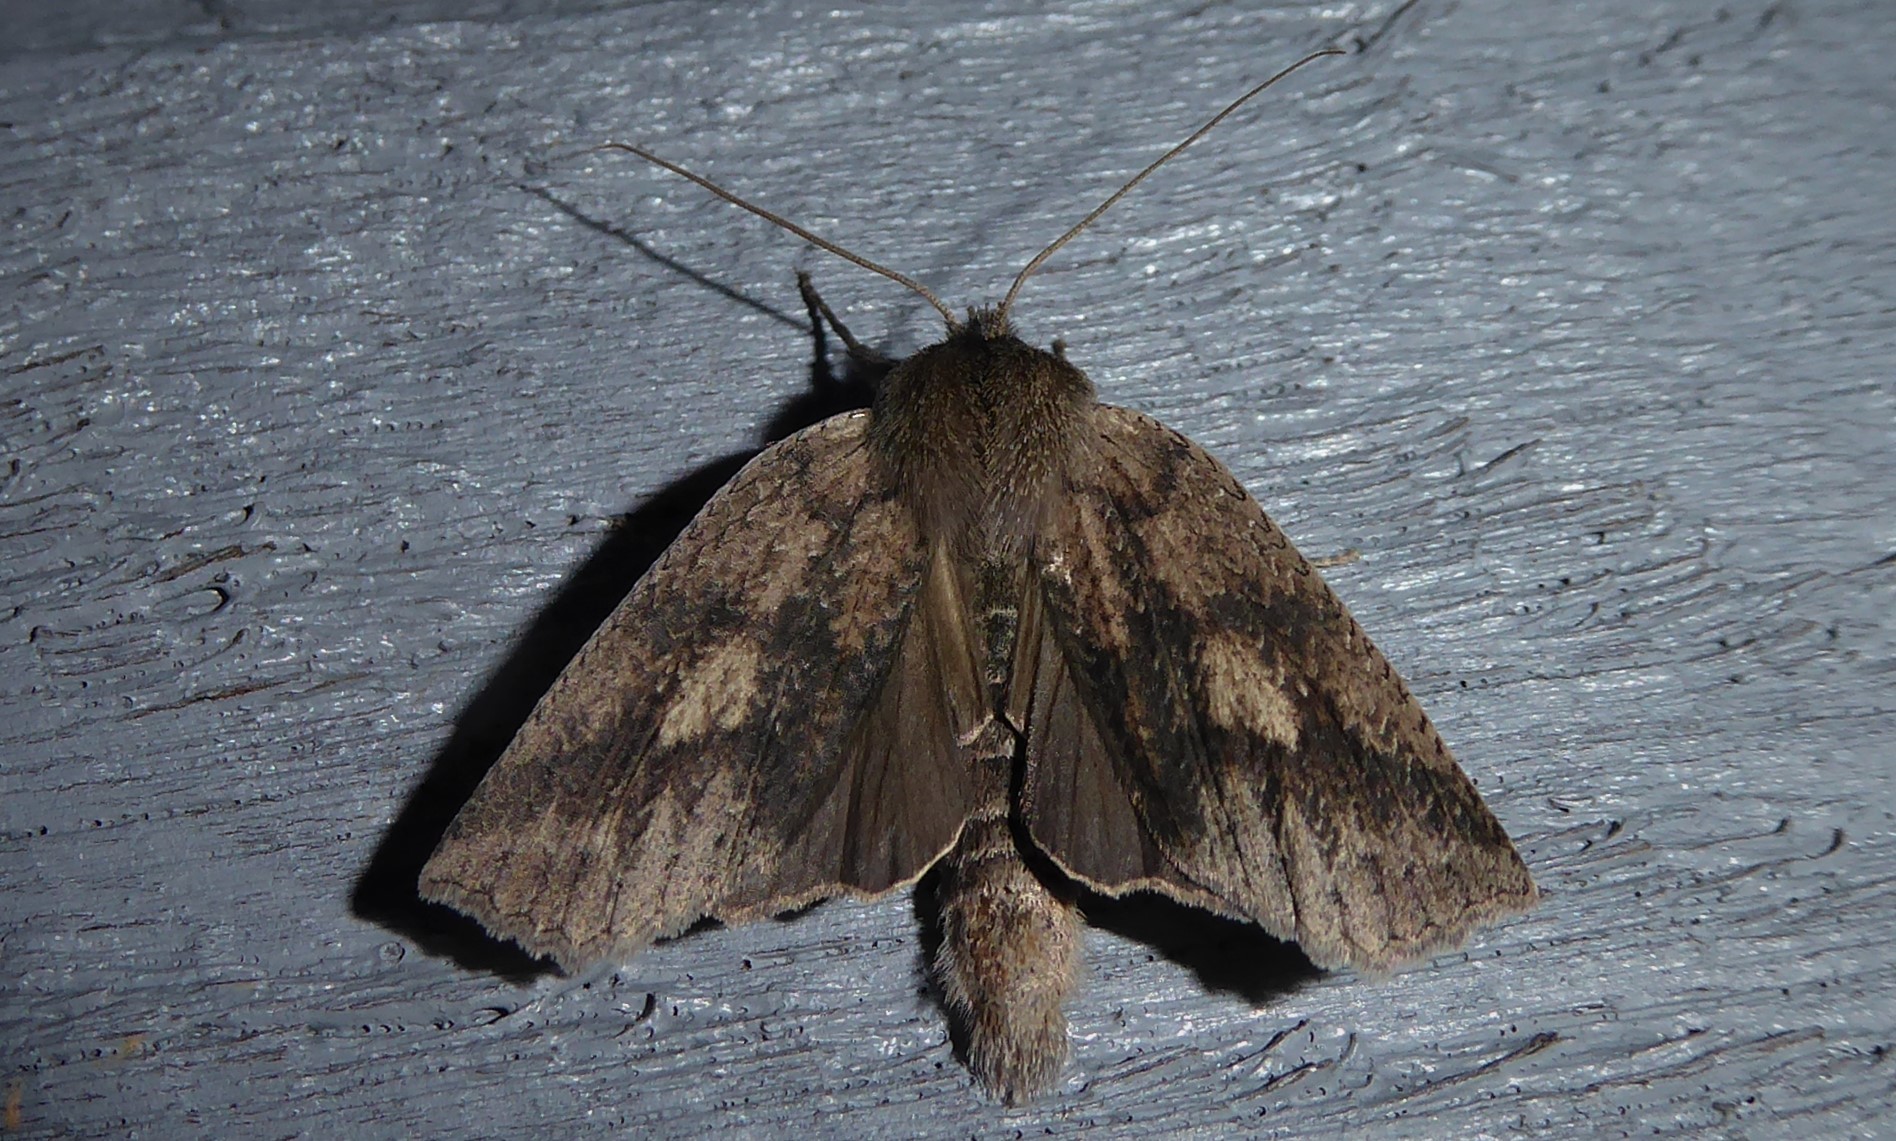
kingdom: Animalia
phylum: Arthropoda
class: Insecta
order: Lepidoptera
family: Geometridae
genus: Declana
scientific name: Declana leptomera
